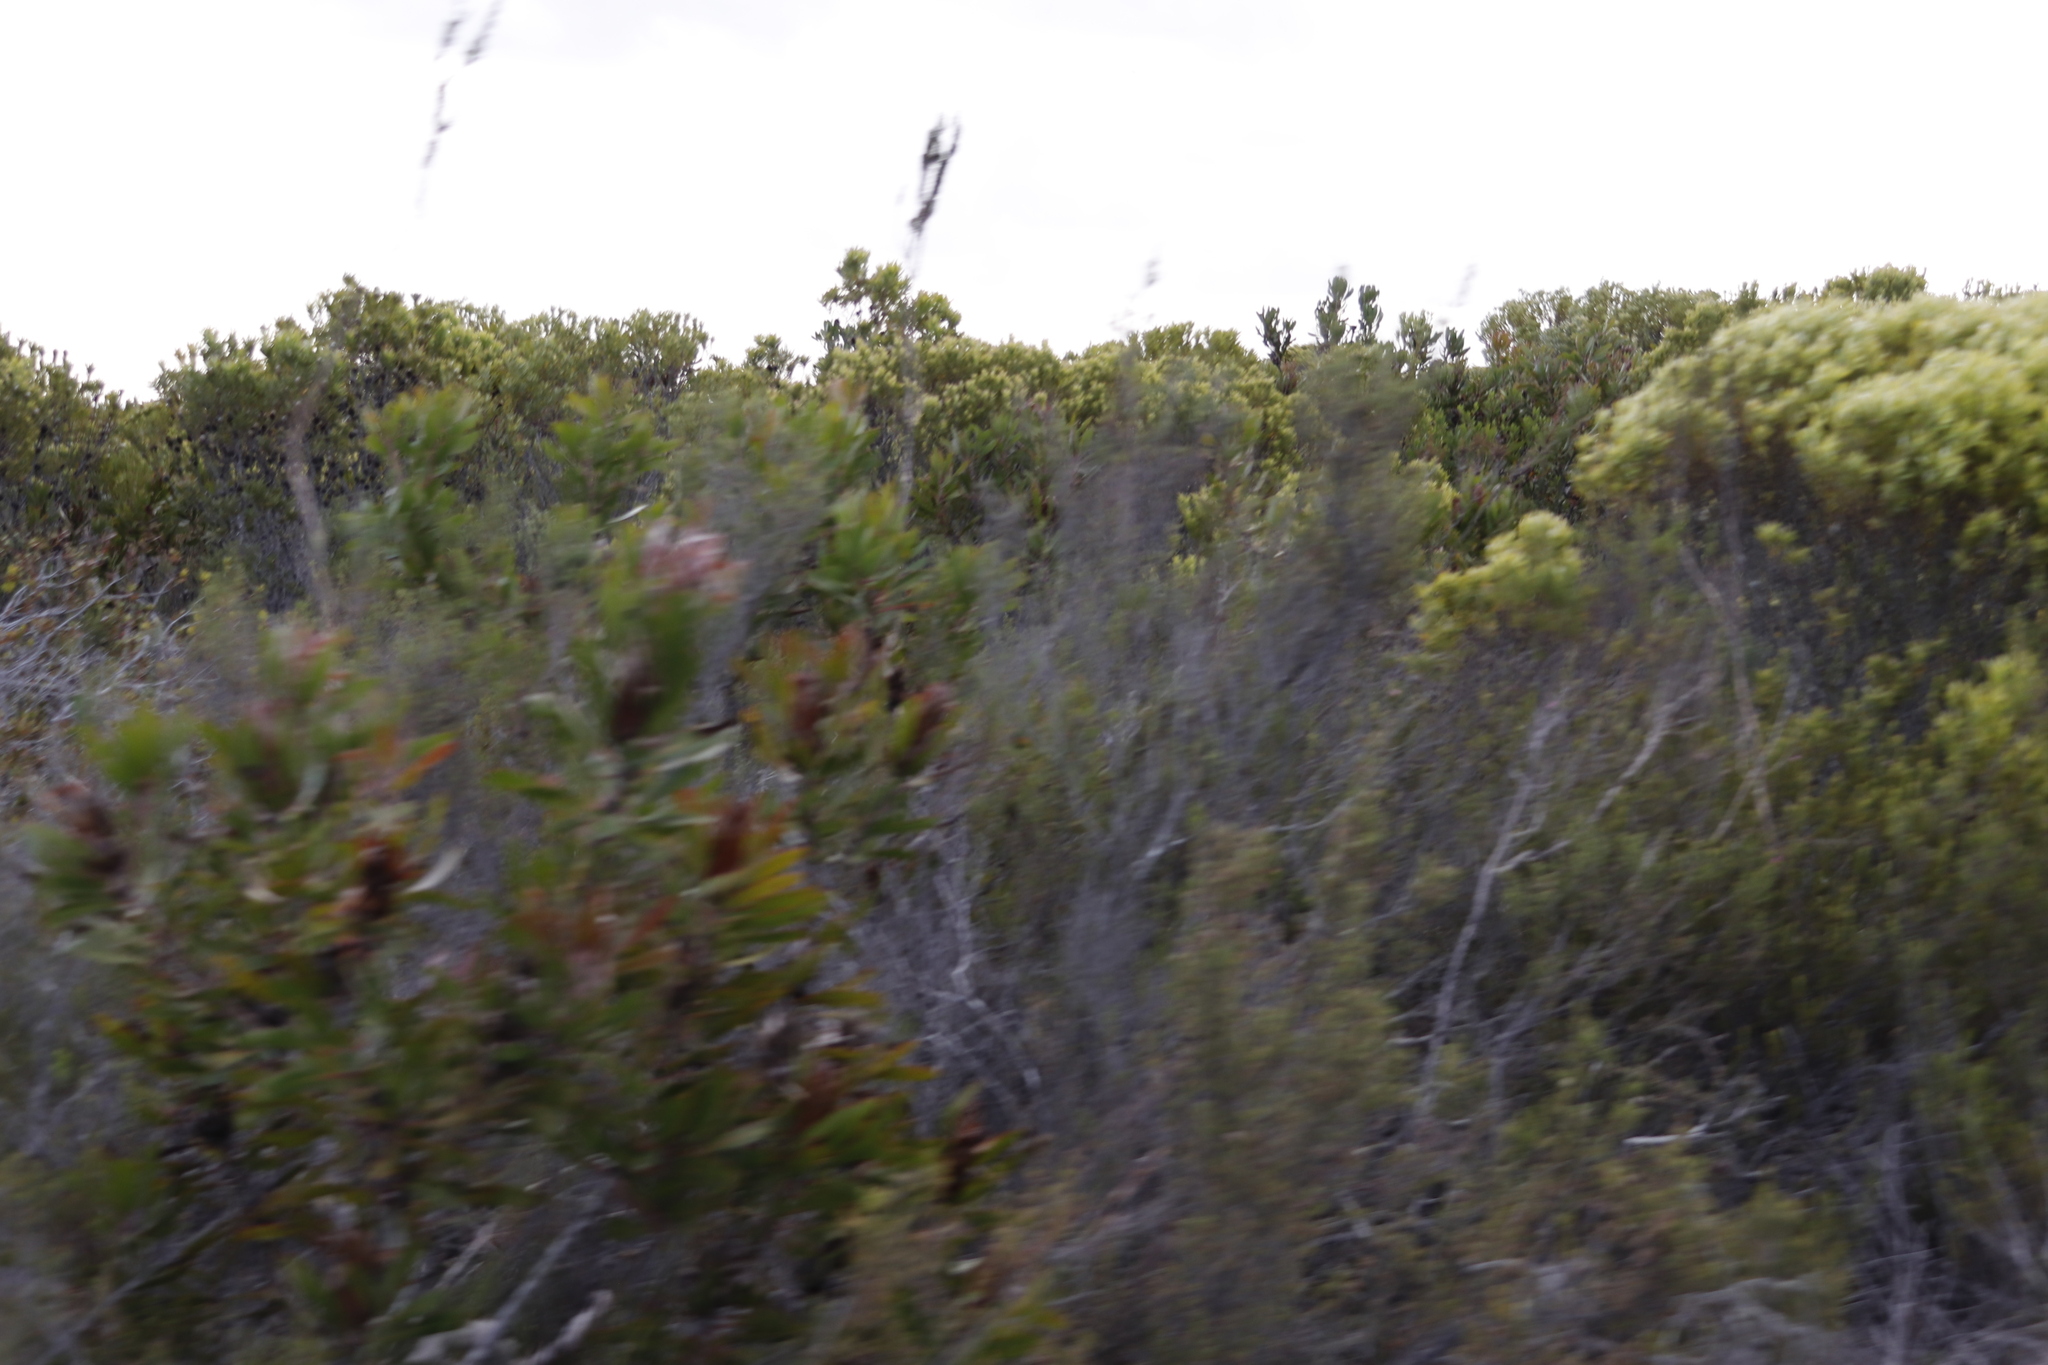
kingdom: Plantae
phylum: Tracheophyta
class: Magnoliopsida
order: Proteales
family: Proteaceae
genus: Leucadendron
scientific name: Leucadendron meridianum
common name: Limestone conebush
